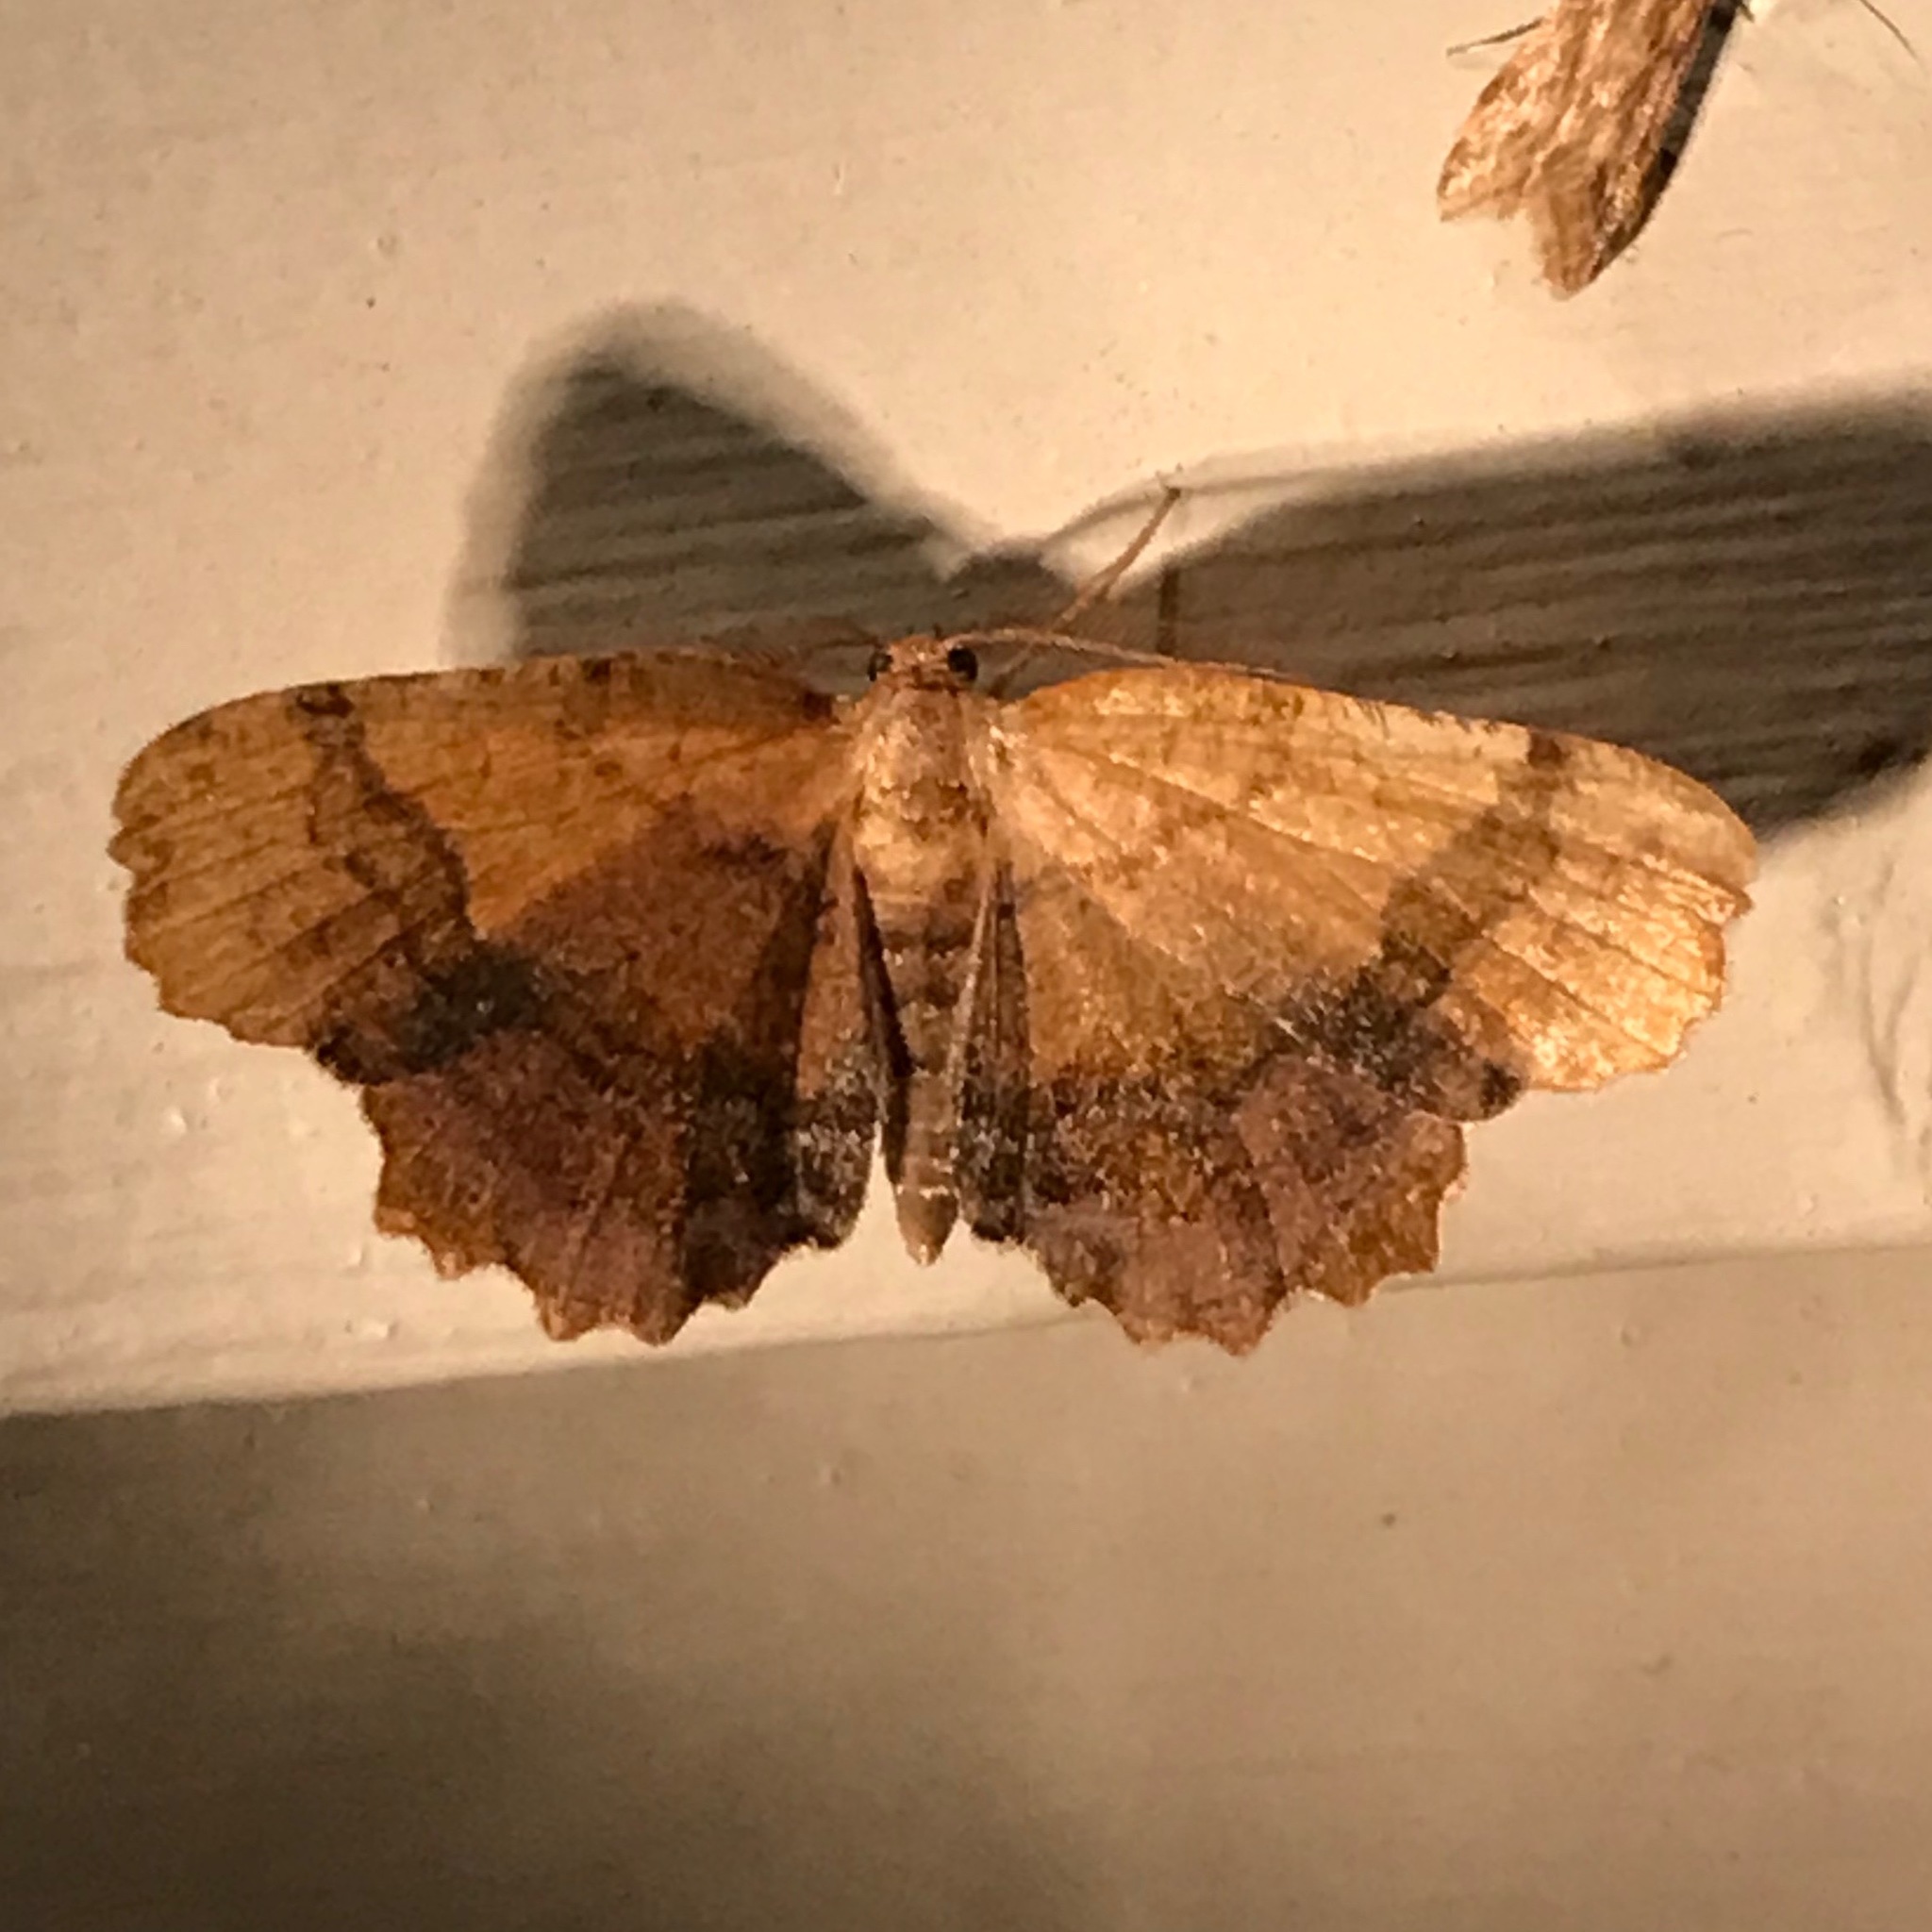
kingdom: Animalia
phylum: Arthropoda
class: Insecta
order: Lepidoptera
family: Geometridae
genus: Cepphis
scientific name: Cepphis armataria
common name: Scallop moth
